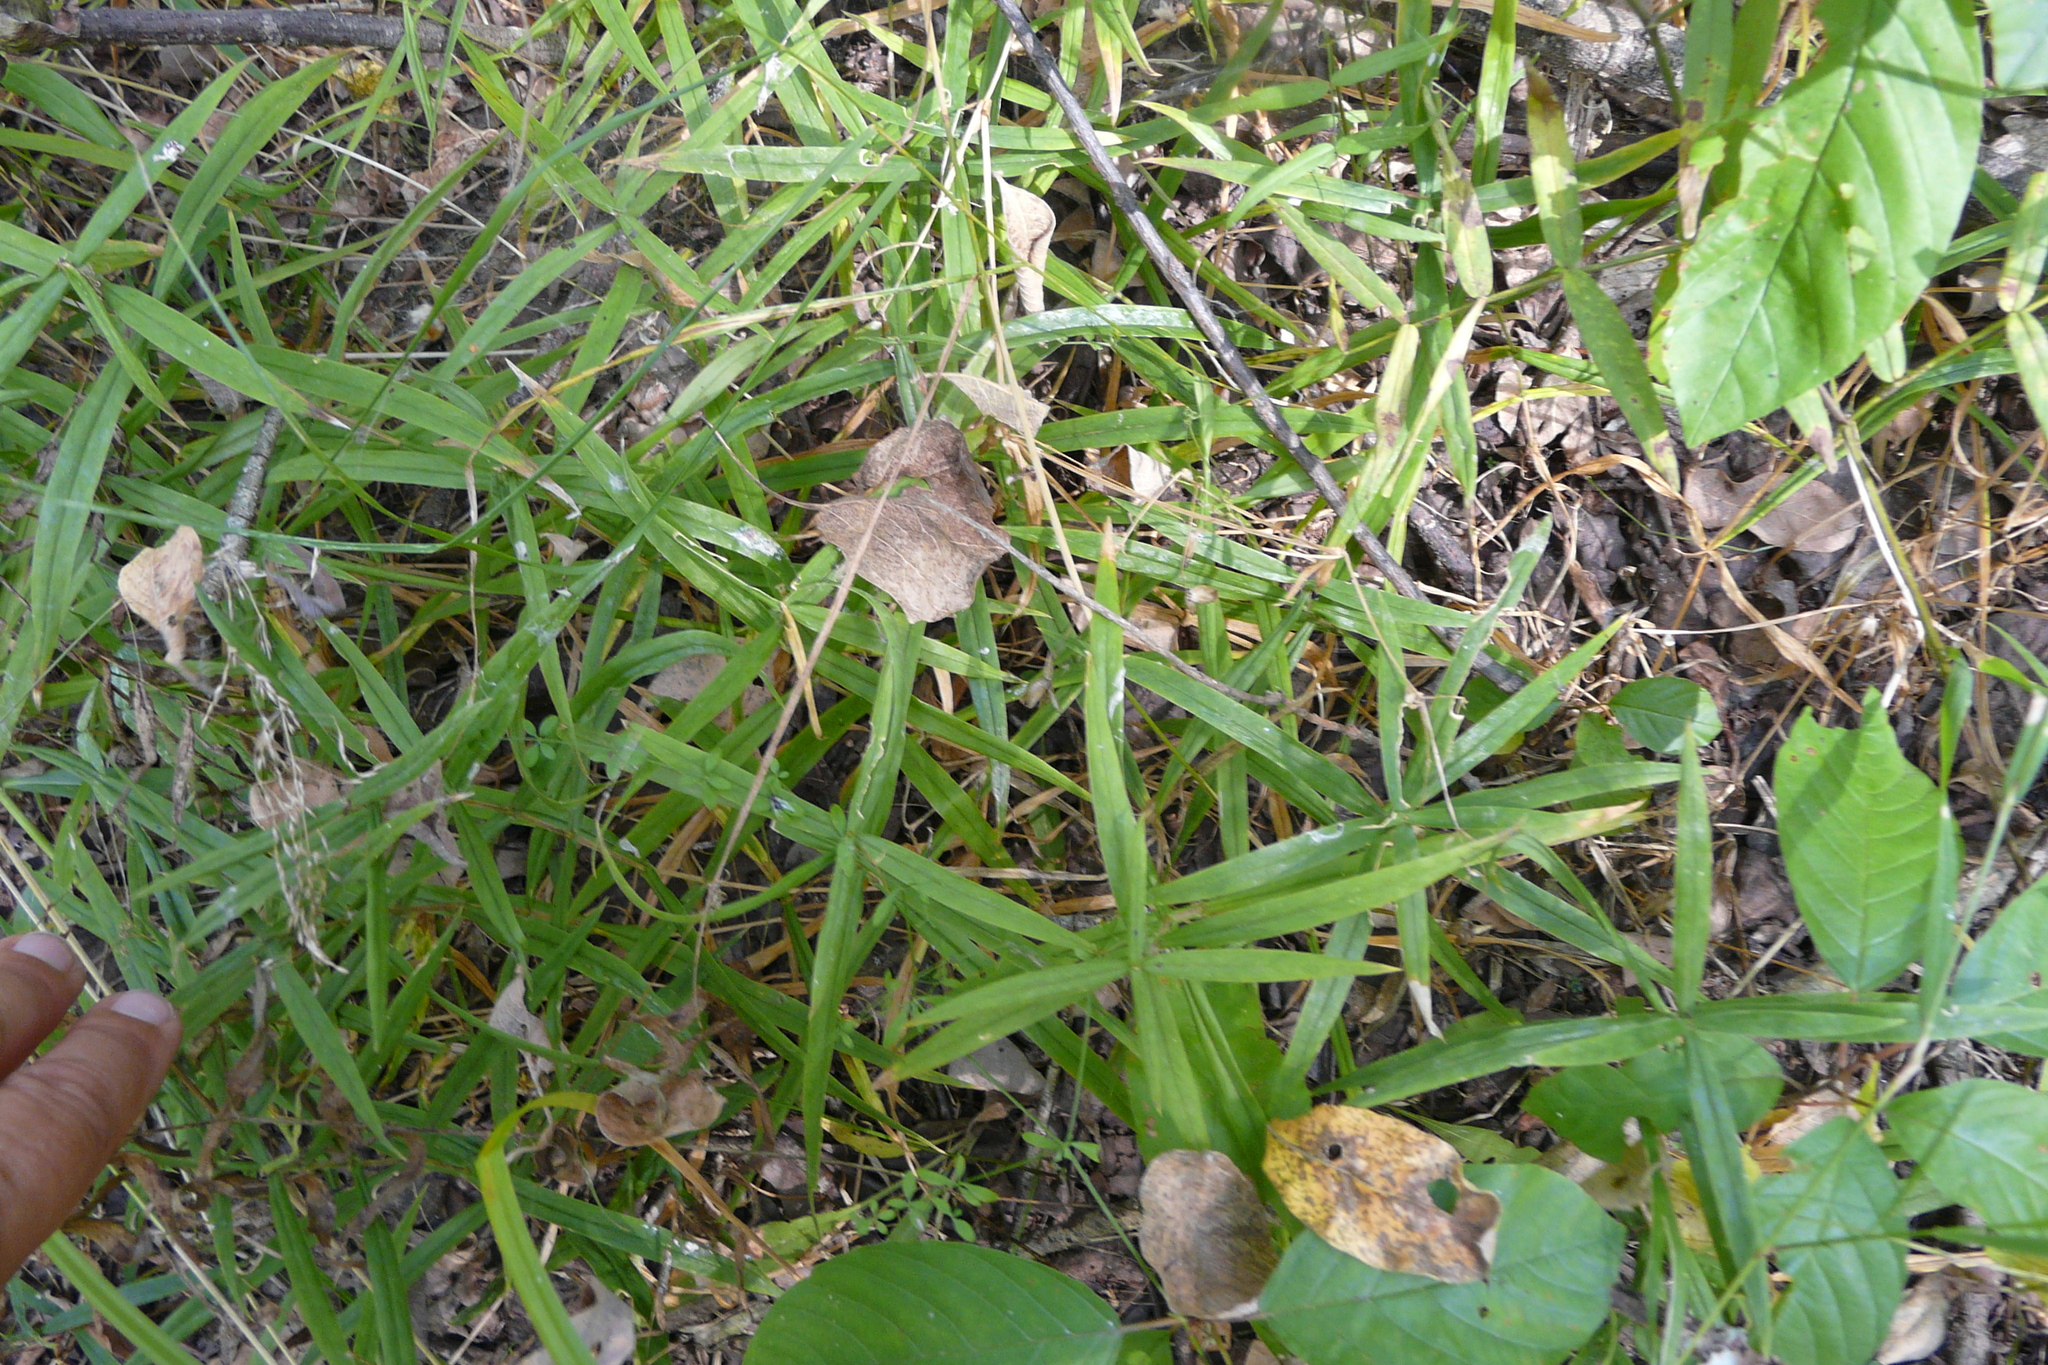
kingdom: Plantae
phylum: Tracheophyta
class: Magnoliopsida
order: Caryophyllales
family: Caryophyllaceae
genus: Rabelera
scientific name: Rabelera holostea
